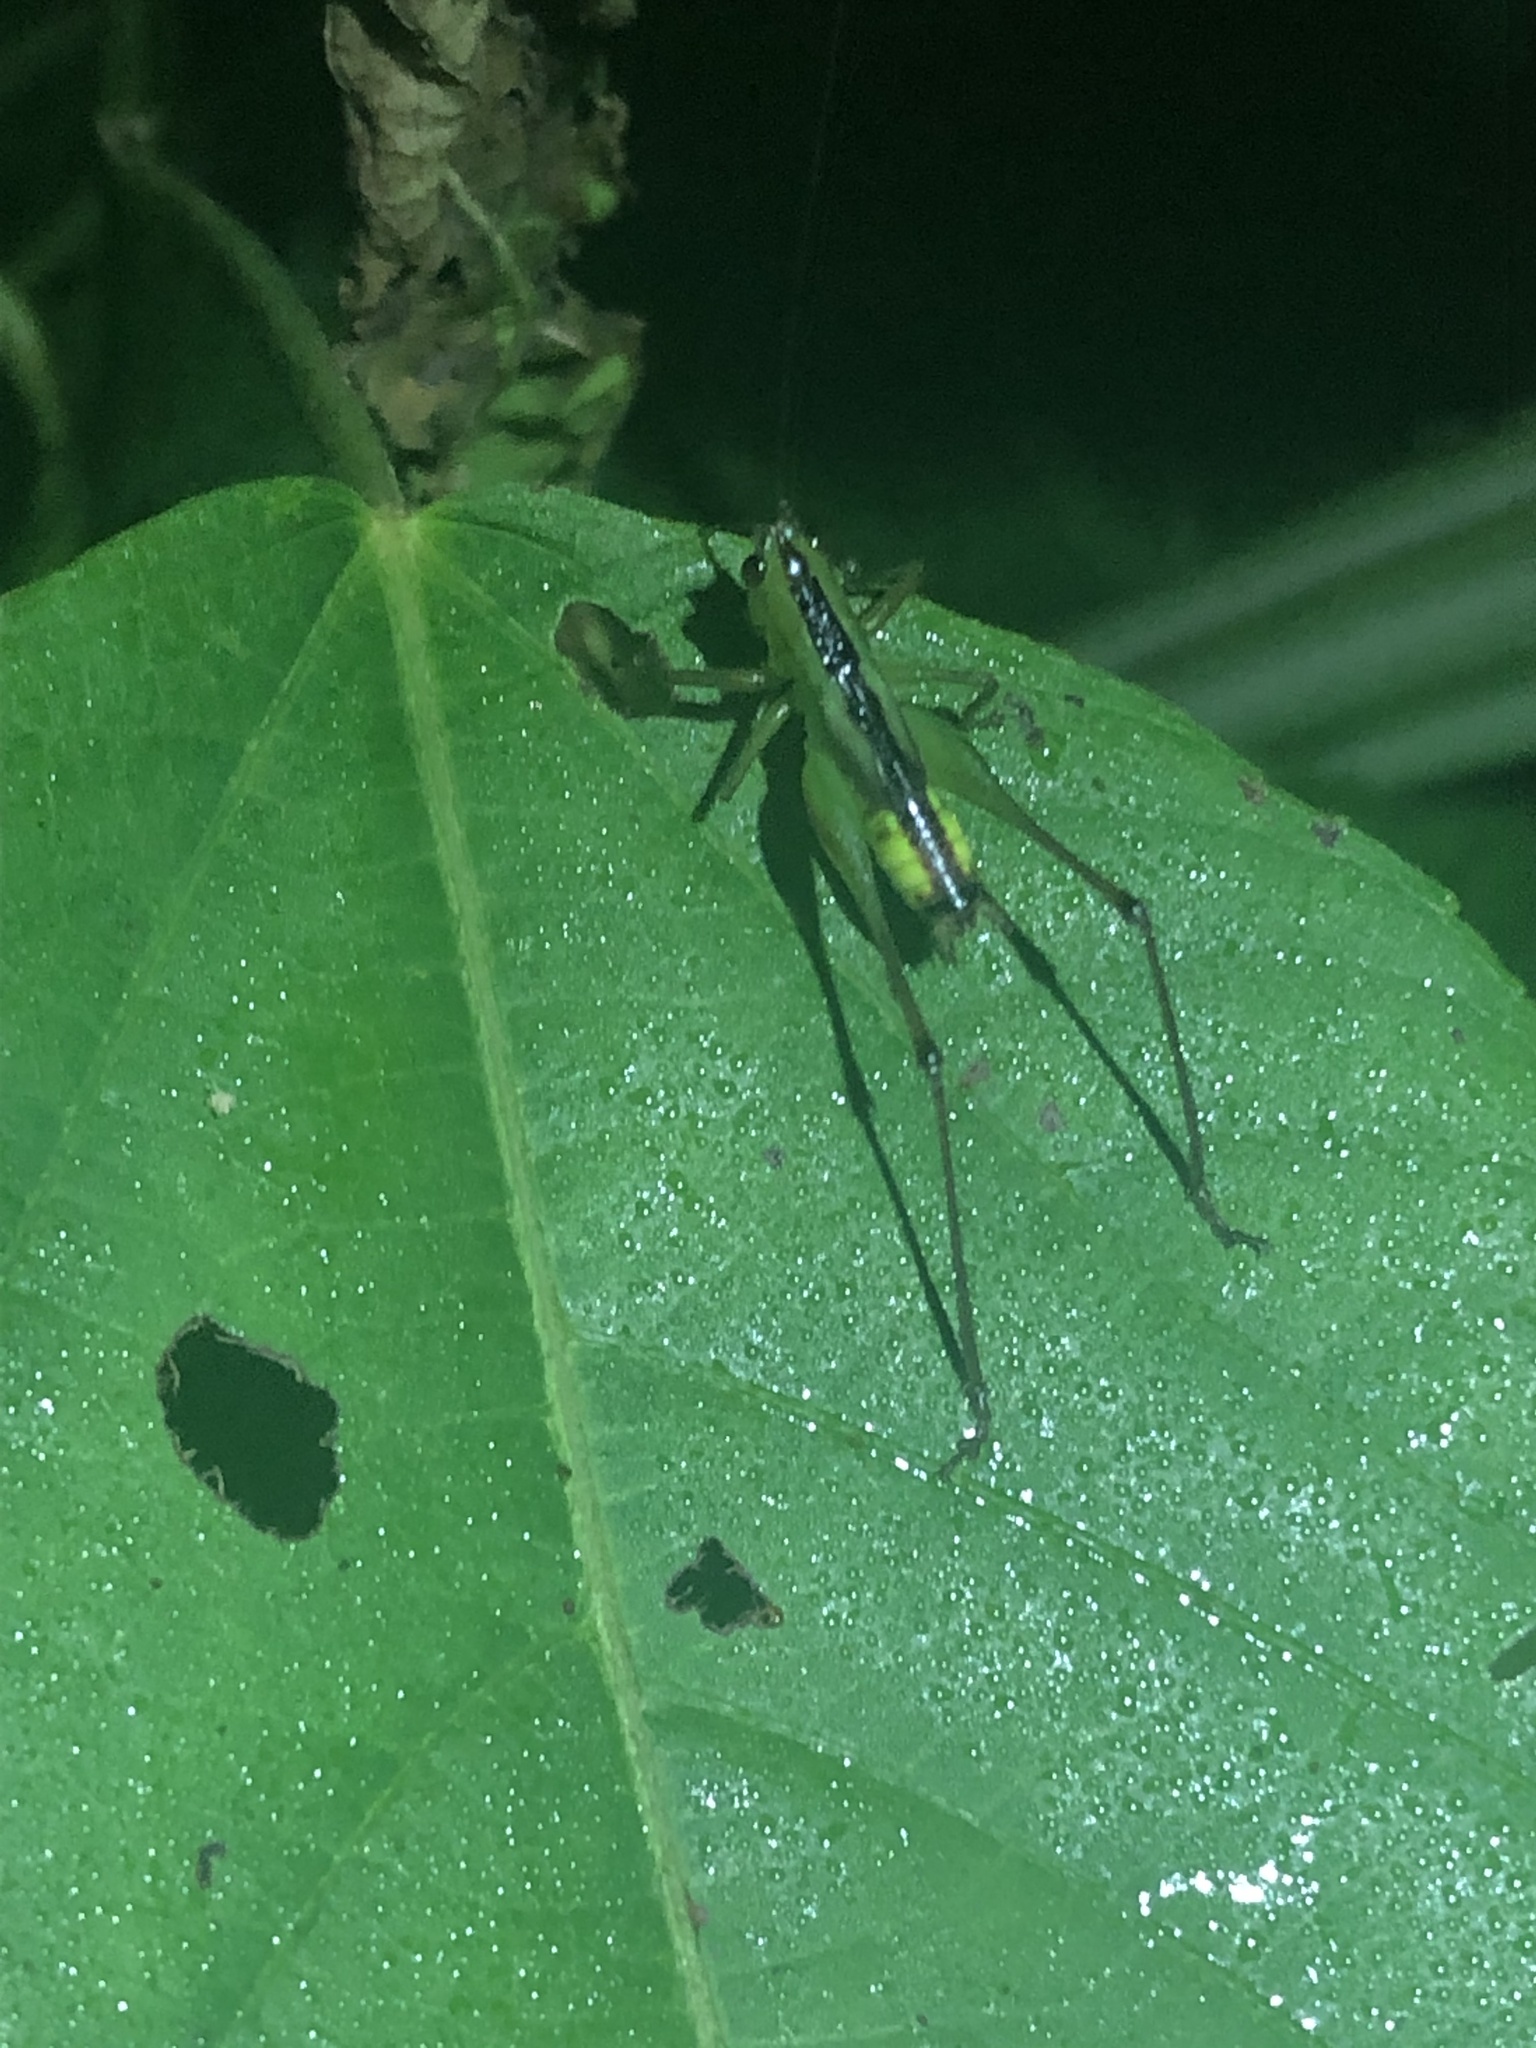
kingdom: Animalia
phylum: Arthropoda
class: Insecta
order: Orthoptera
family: Tettigoniidae
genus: Conocephalus
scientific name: Conocephalus versicolor
